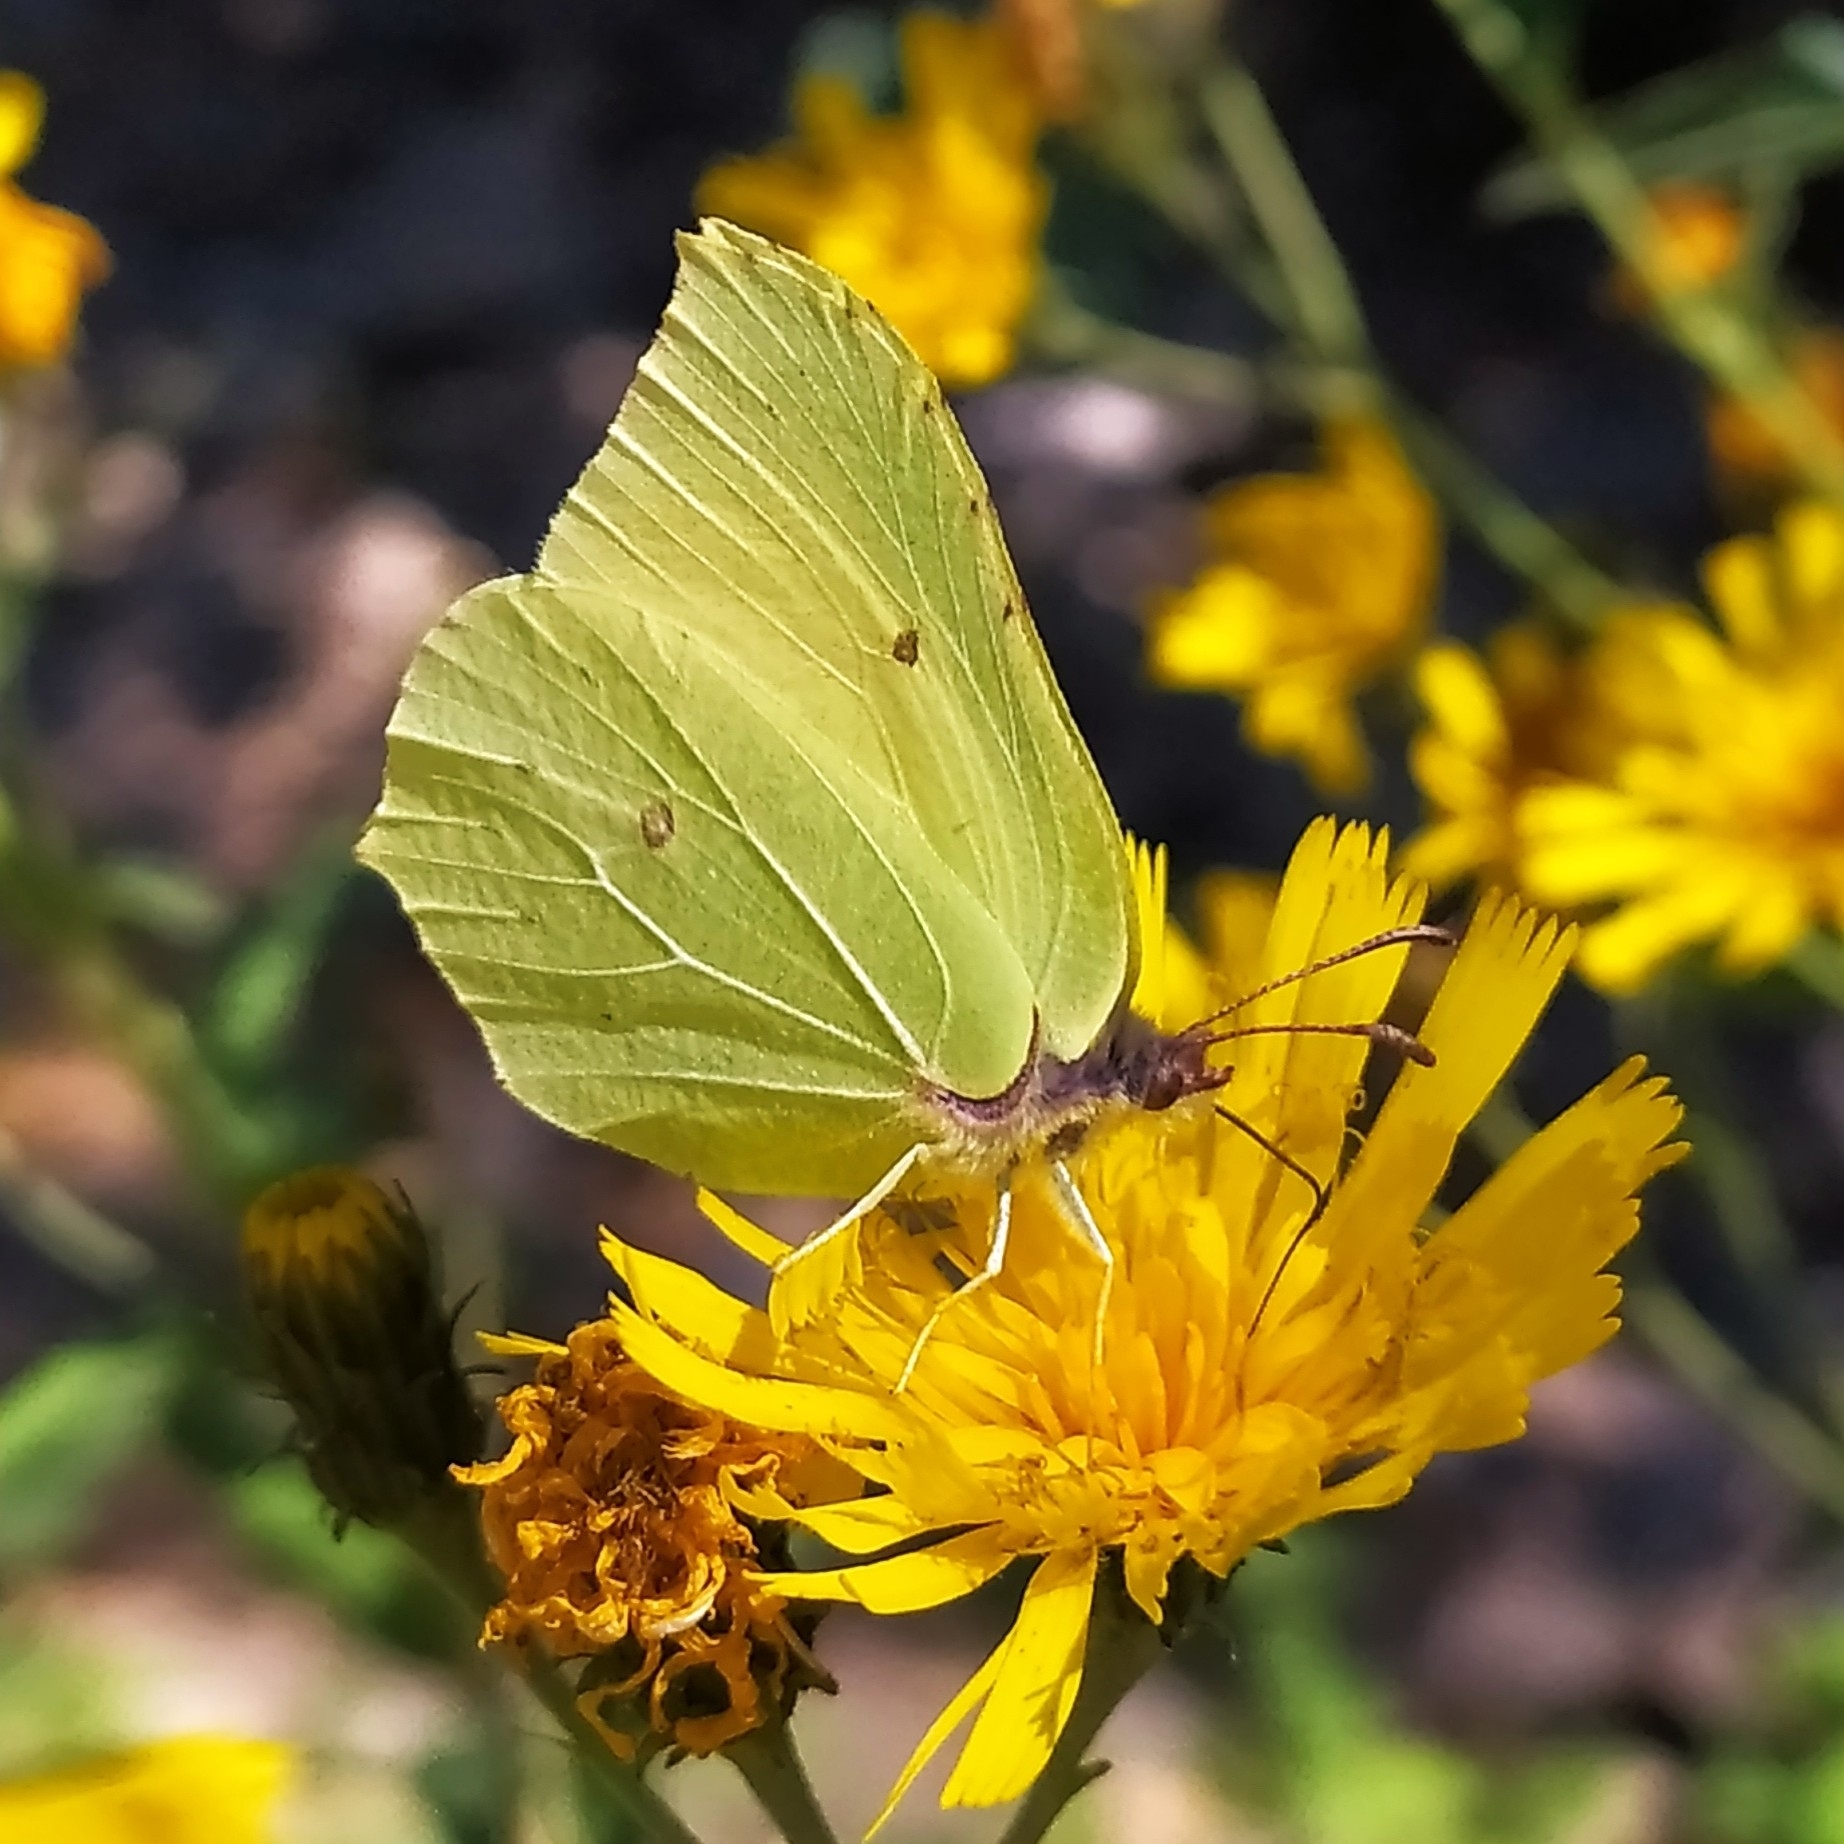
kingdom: Animalia
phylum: Arthropoda
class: Insecta
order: Lepidoptera
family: Pieridae
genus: Gonepteryx
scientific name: Gonepteryx rhamni
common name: Brimstone
